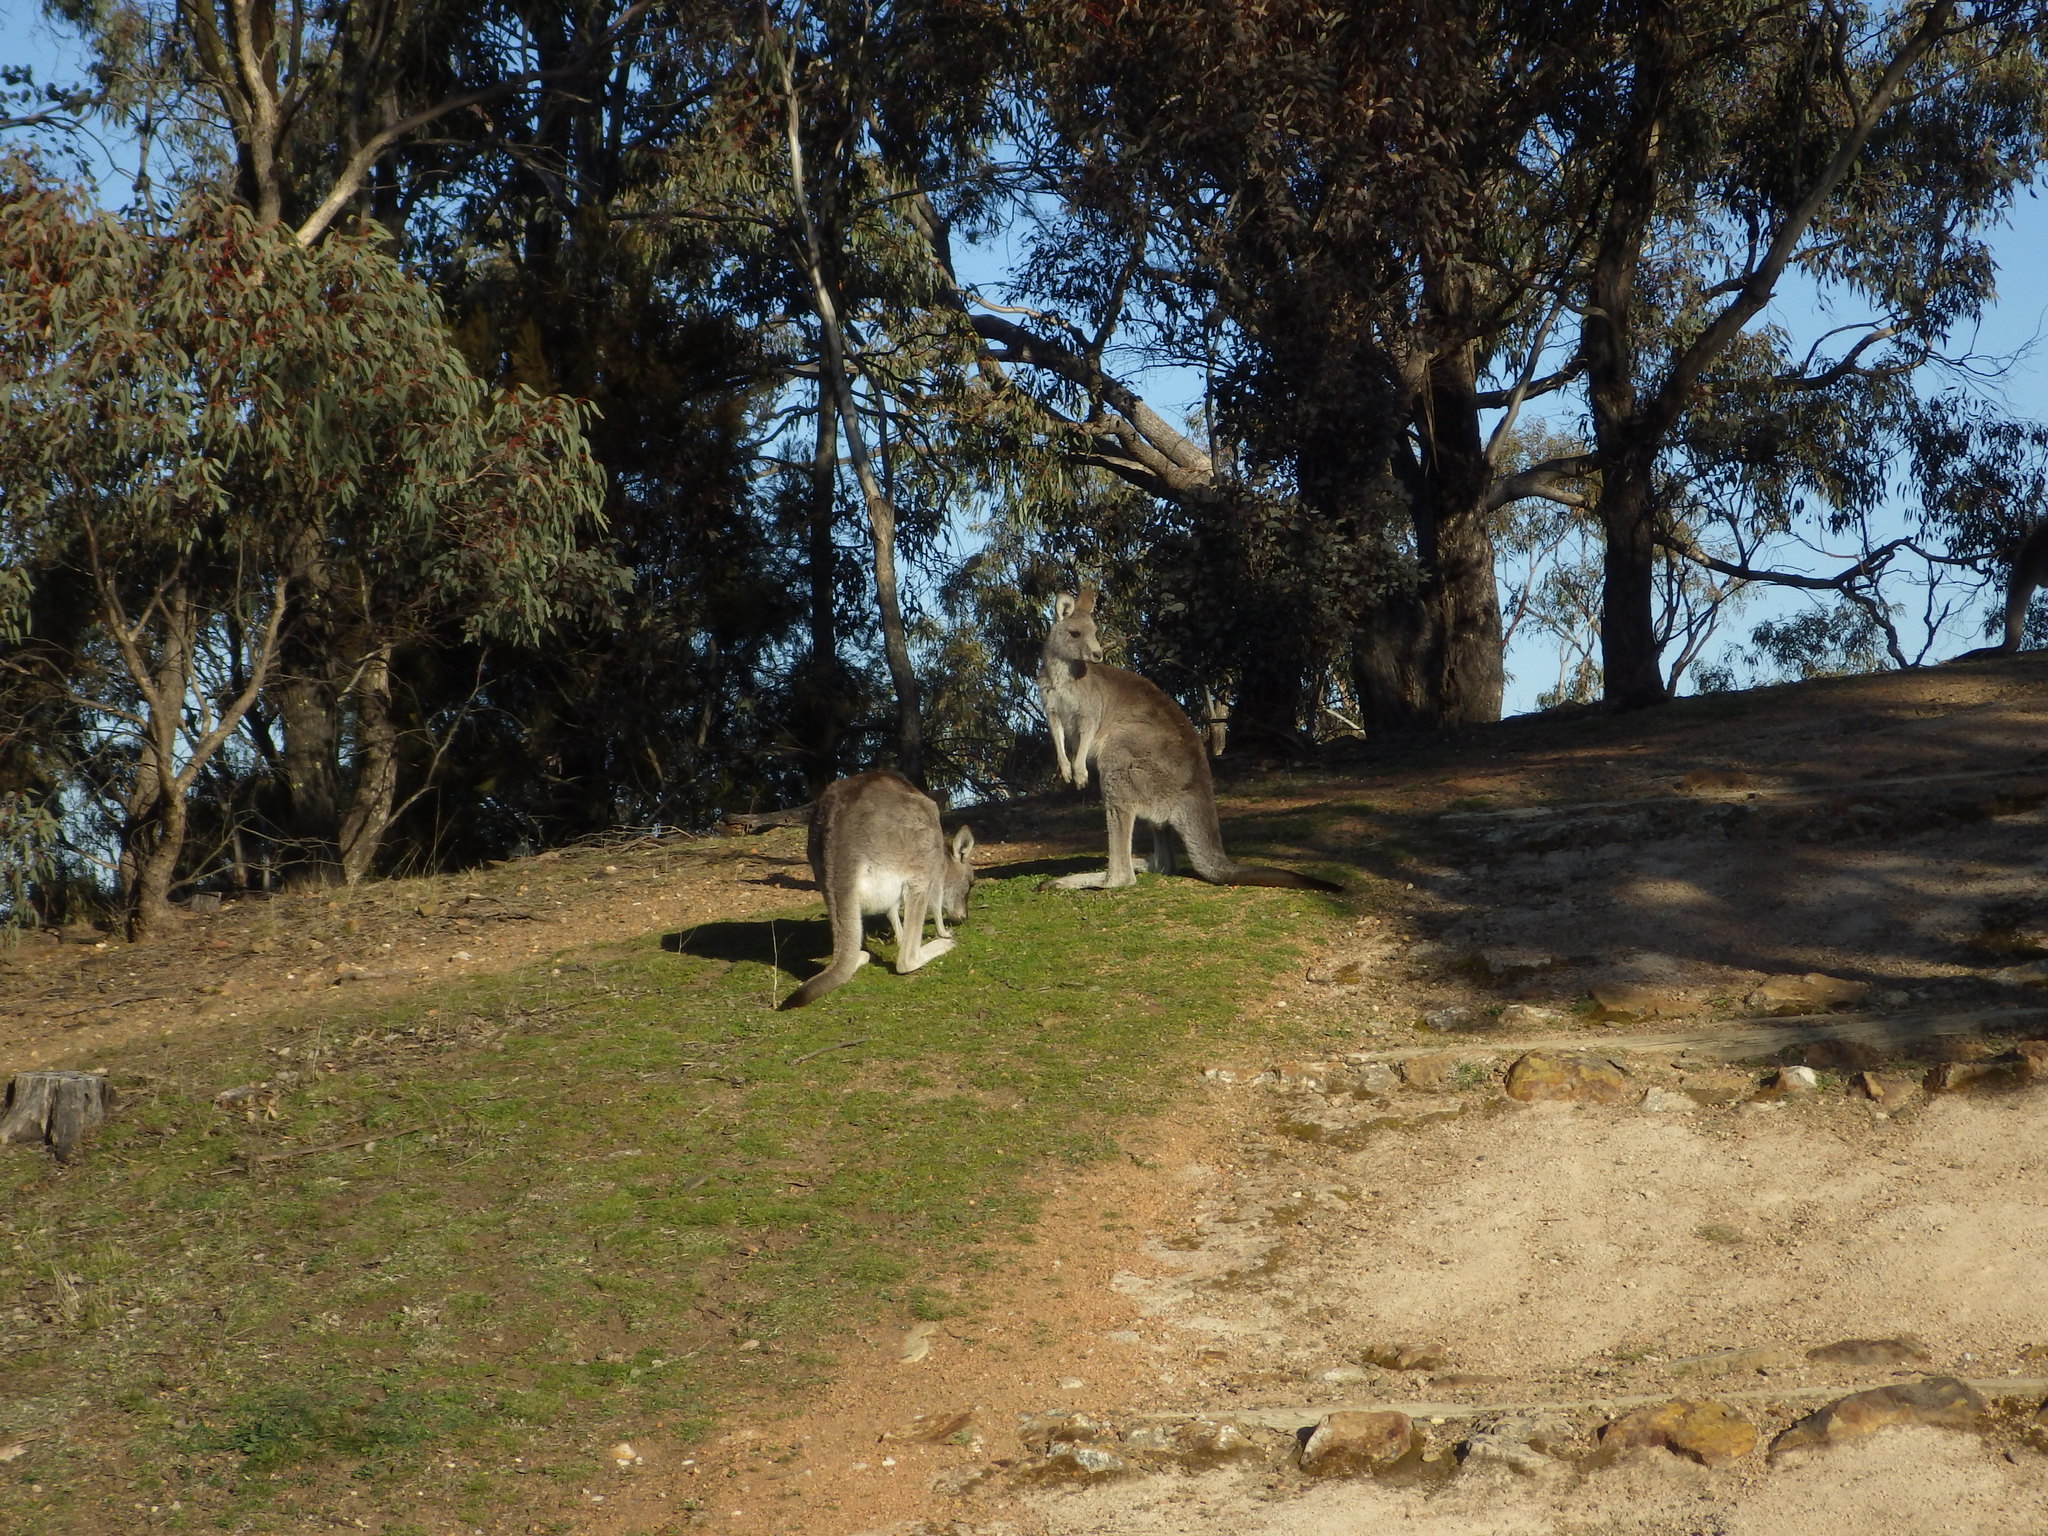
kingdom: Animalia
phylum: Chordata
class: Mammalia
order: Diprotodontia
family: Macropodidae
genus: Macropus
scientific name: Macropus giganteus
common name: Eastern grey kangaroo
